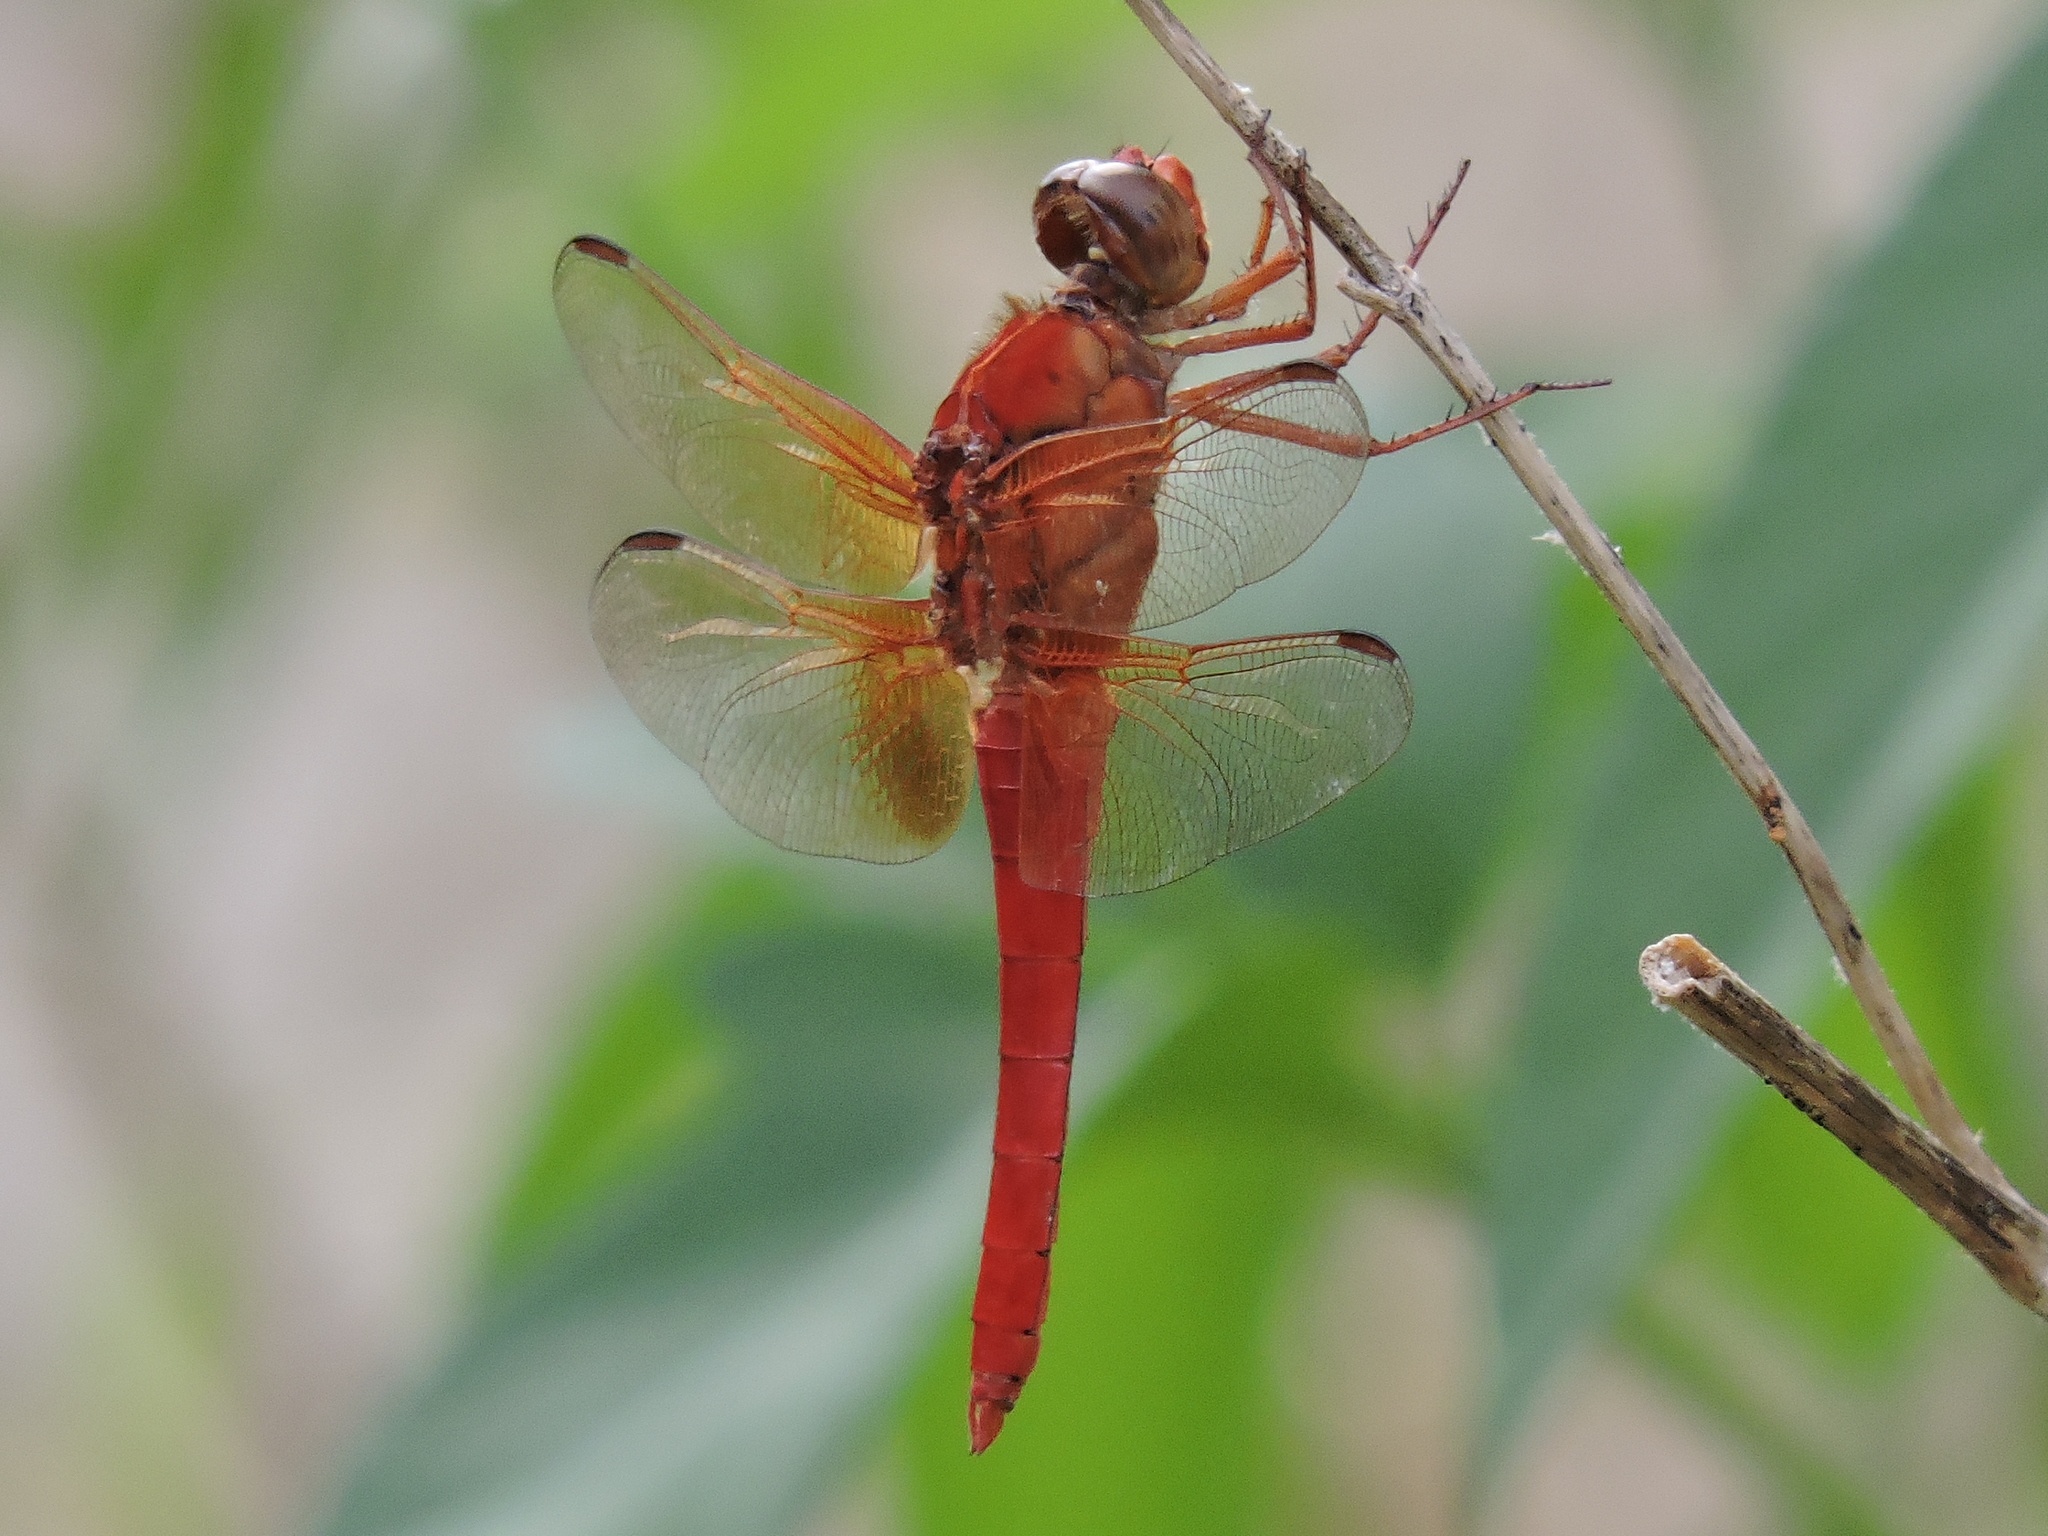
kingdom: Animalia
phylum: Arthropoda
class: Insecta
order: Odonata
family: Libellulidae
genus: Libellula
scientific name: Libellula croceipennis
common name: Neon skimmer
